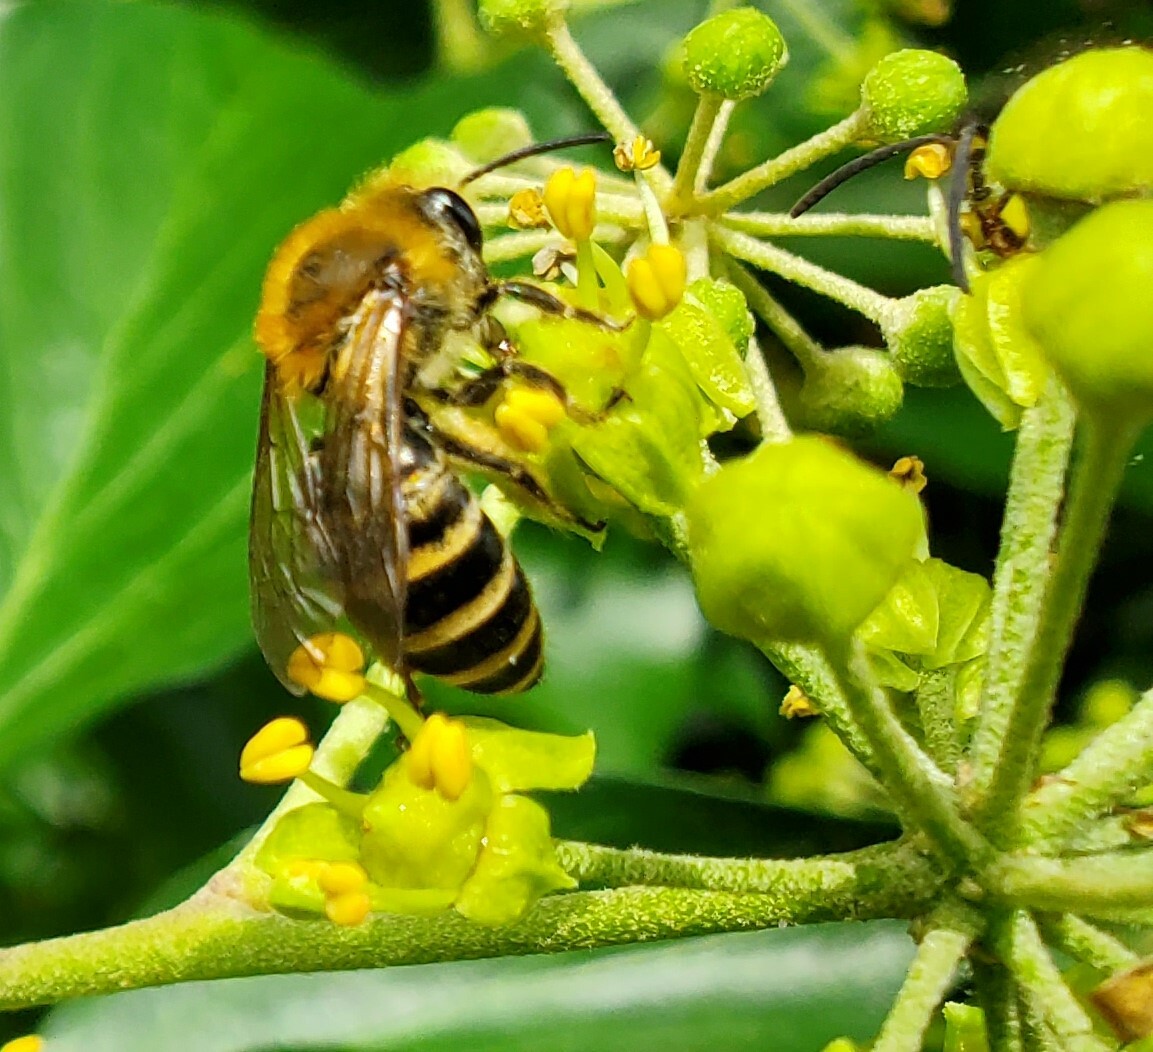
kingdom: Animalia
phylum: Arthropoda
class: Insecta
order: Hymenoptera
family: Colletidae
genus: Colletes
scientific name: Colletes hederae
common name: Ivy bee
